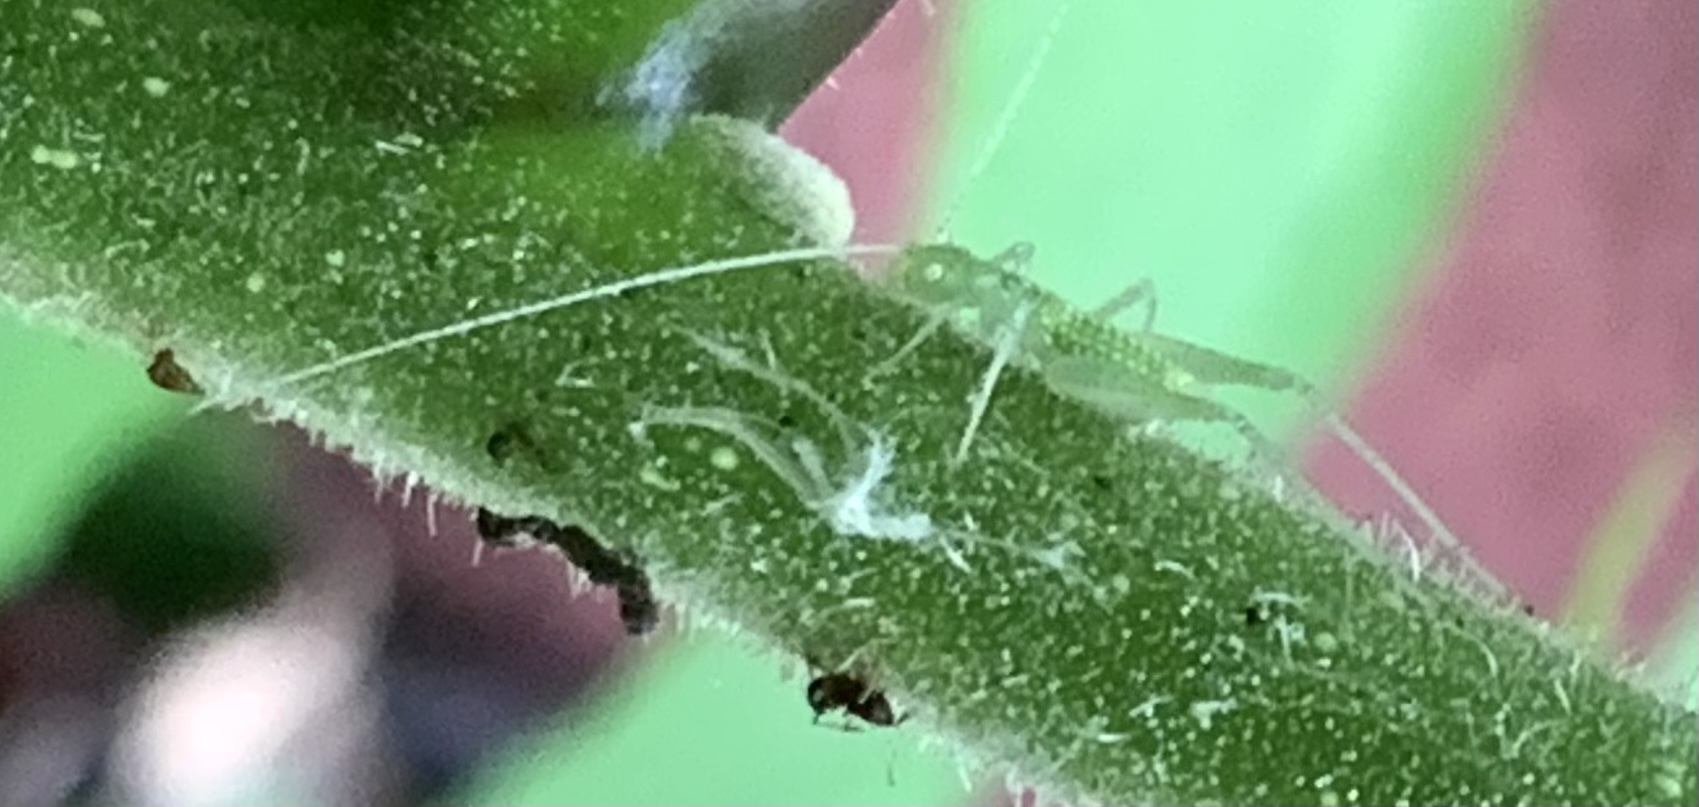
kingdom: Animalia
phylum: Arthropoda
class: Insecta
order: Orthoptera
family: Gryllidae
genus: Oecanthus
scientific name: Oecanthus fultoni
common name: Snowy tree cricket
